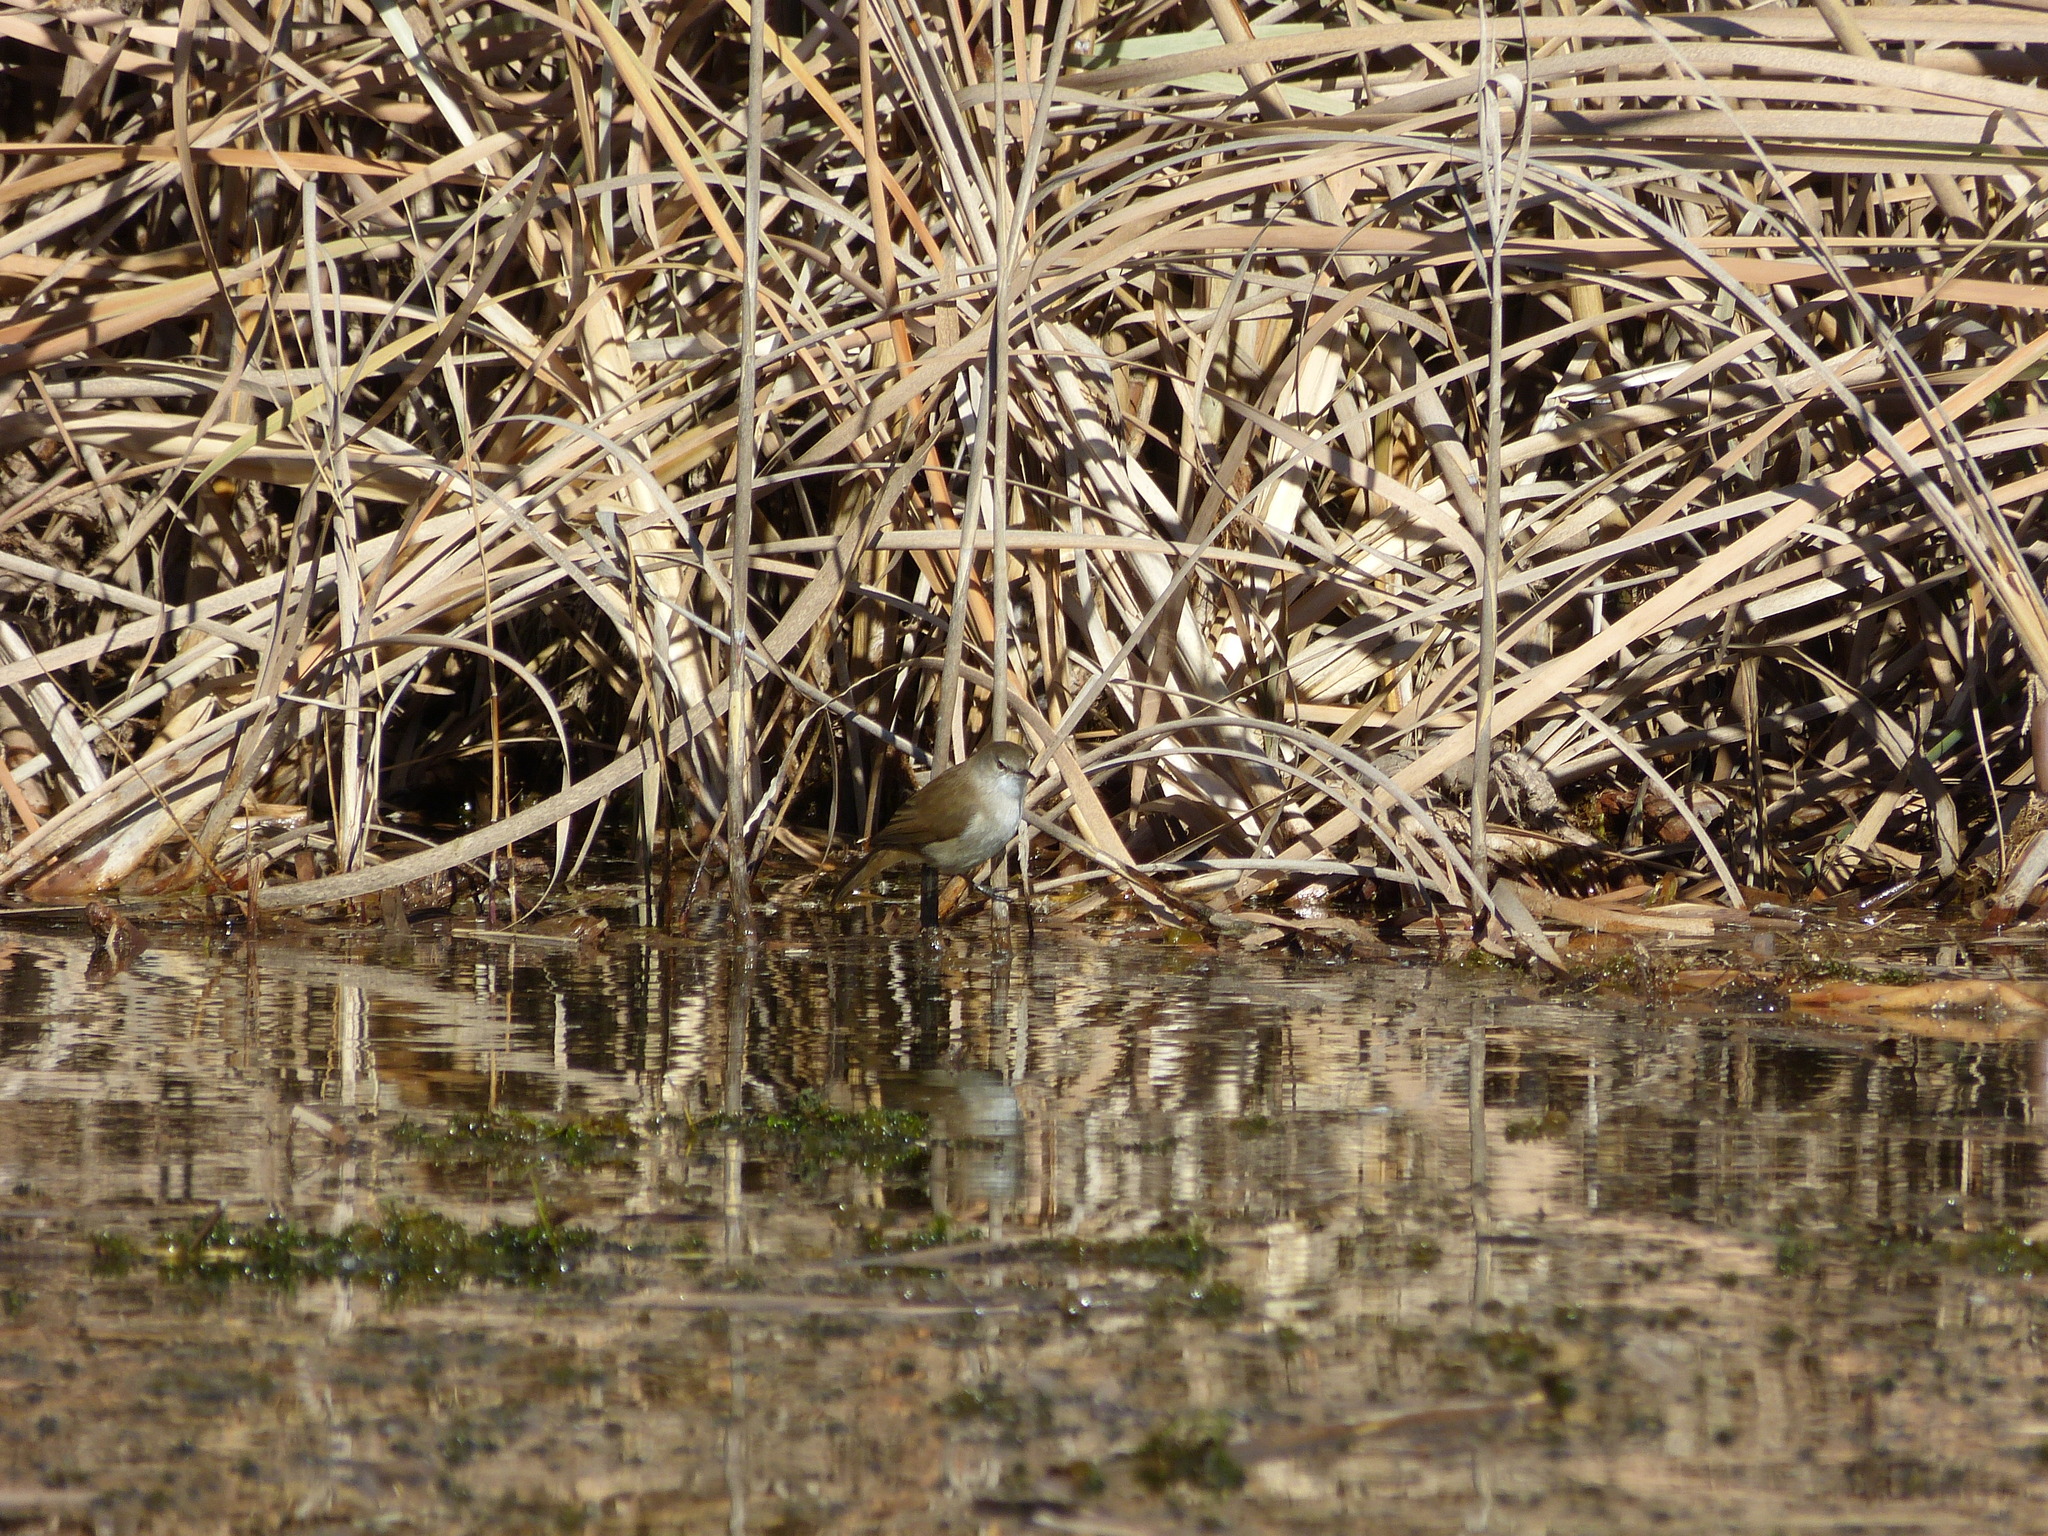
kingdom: Animalia
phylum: Chordata
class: Aves
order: Passeriformes
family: Acrocephalidae
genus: Acrocephalus
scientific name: Acrocephalus gracilirostris
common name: Lesser swamp warbler
